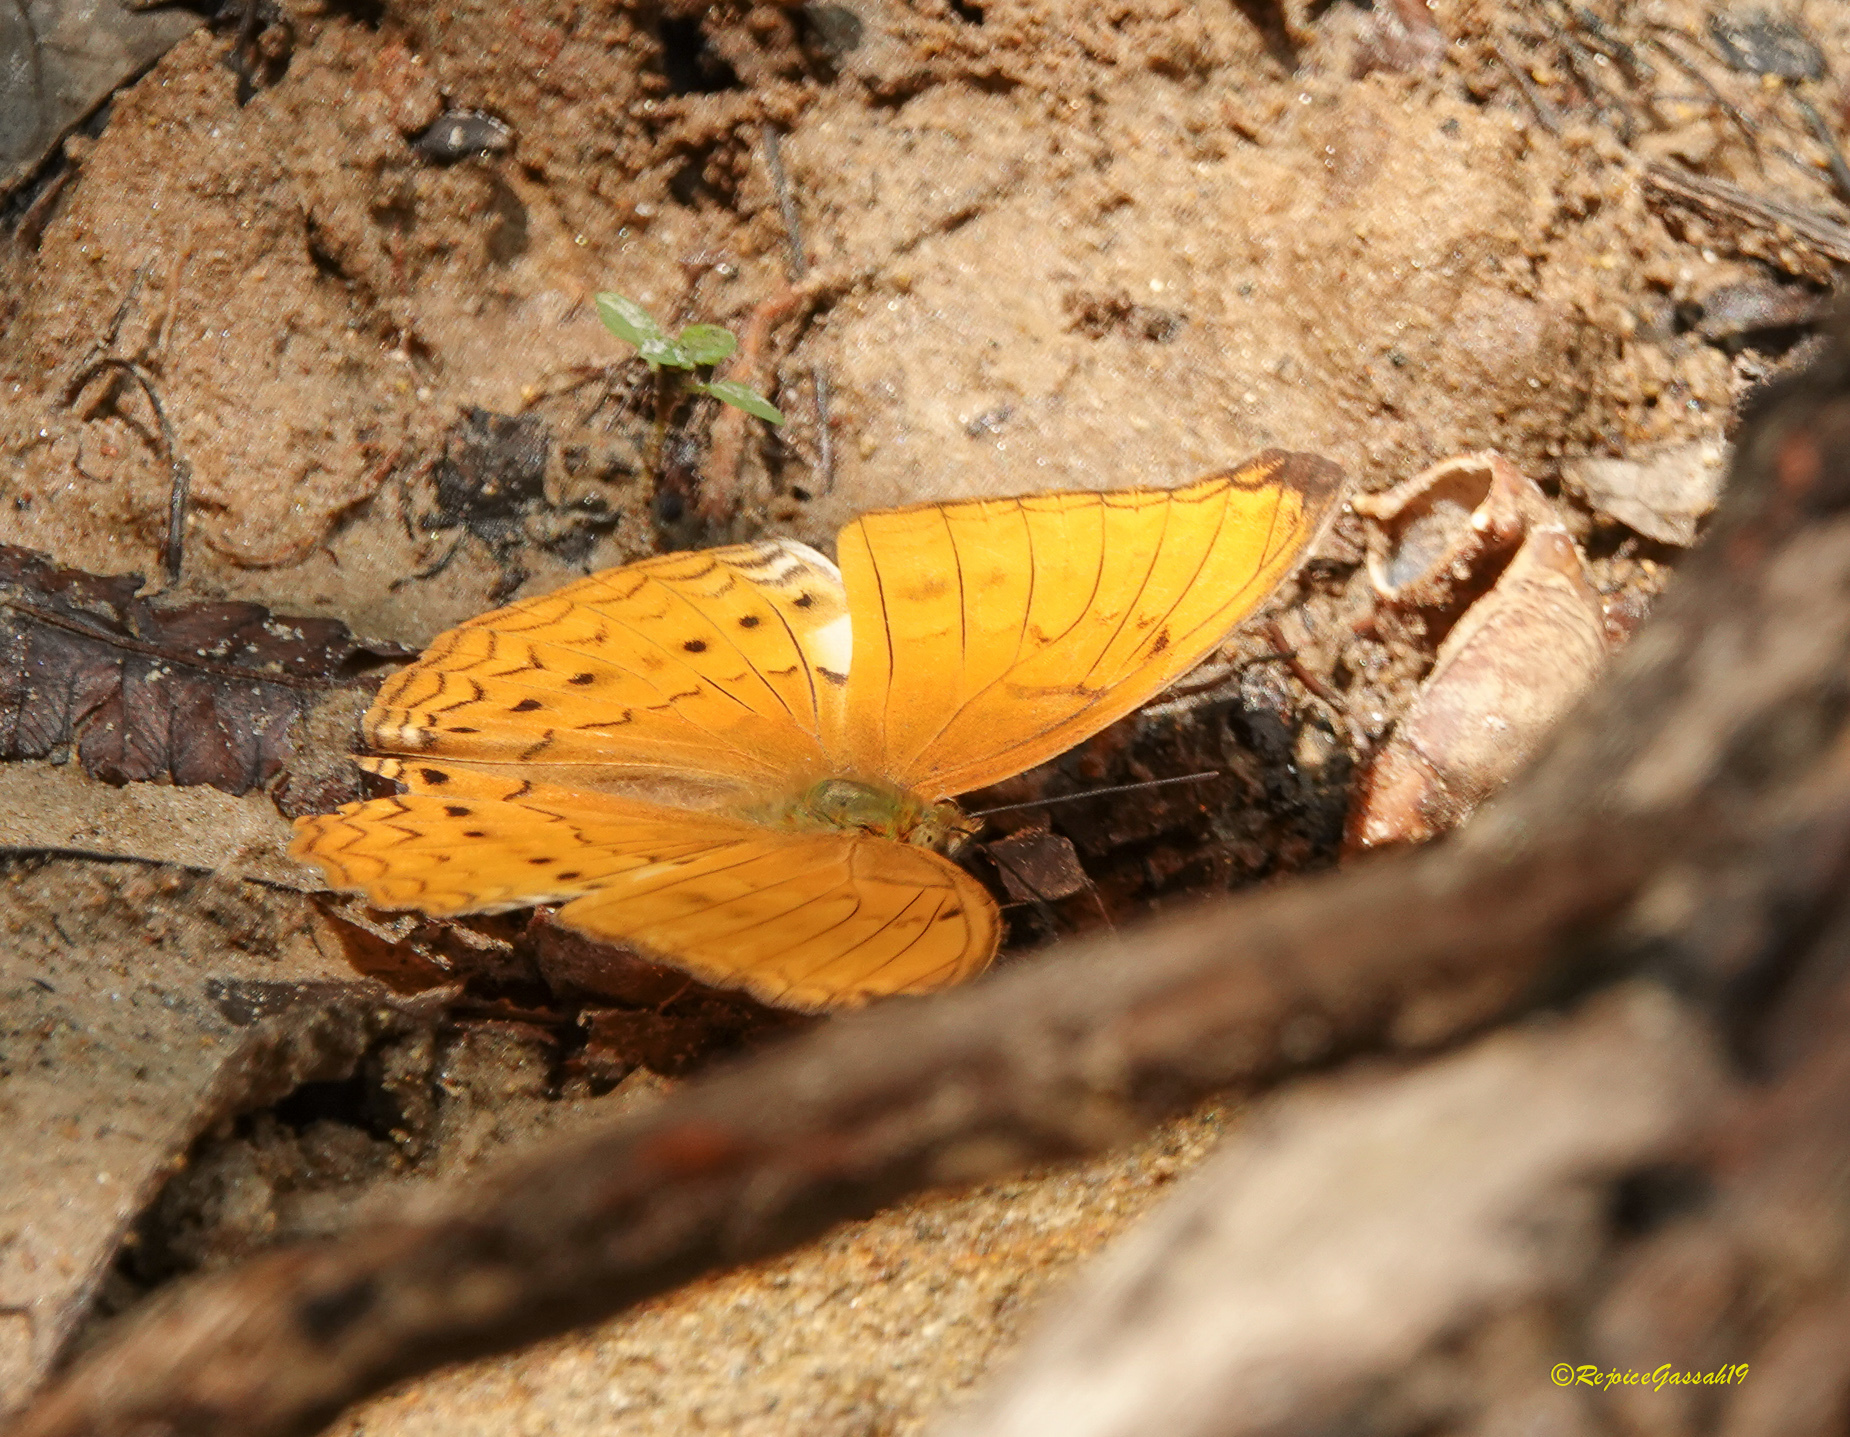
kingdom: Animalia
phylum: Arthropoda
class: Insecta
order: Lepidoptera
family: Nymphalidae
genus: Cirrochroa
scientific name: Cirrochroa aoris
